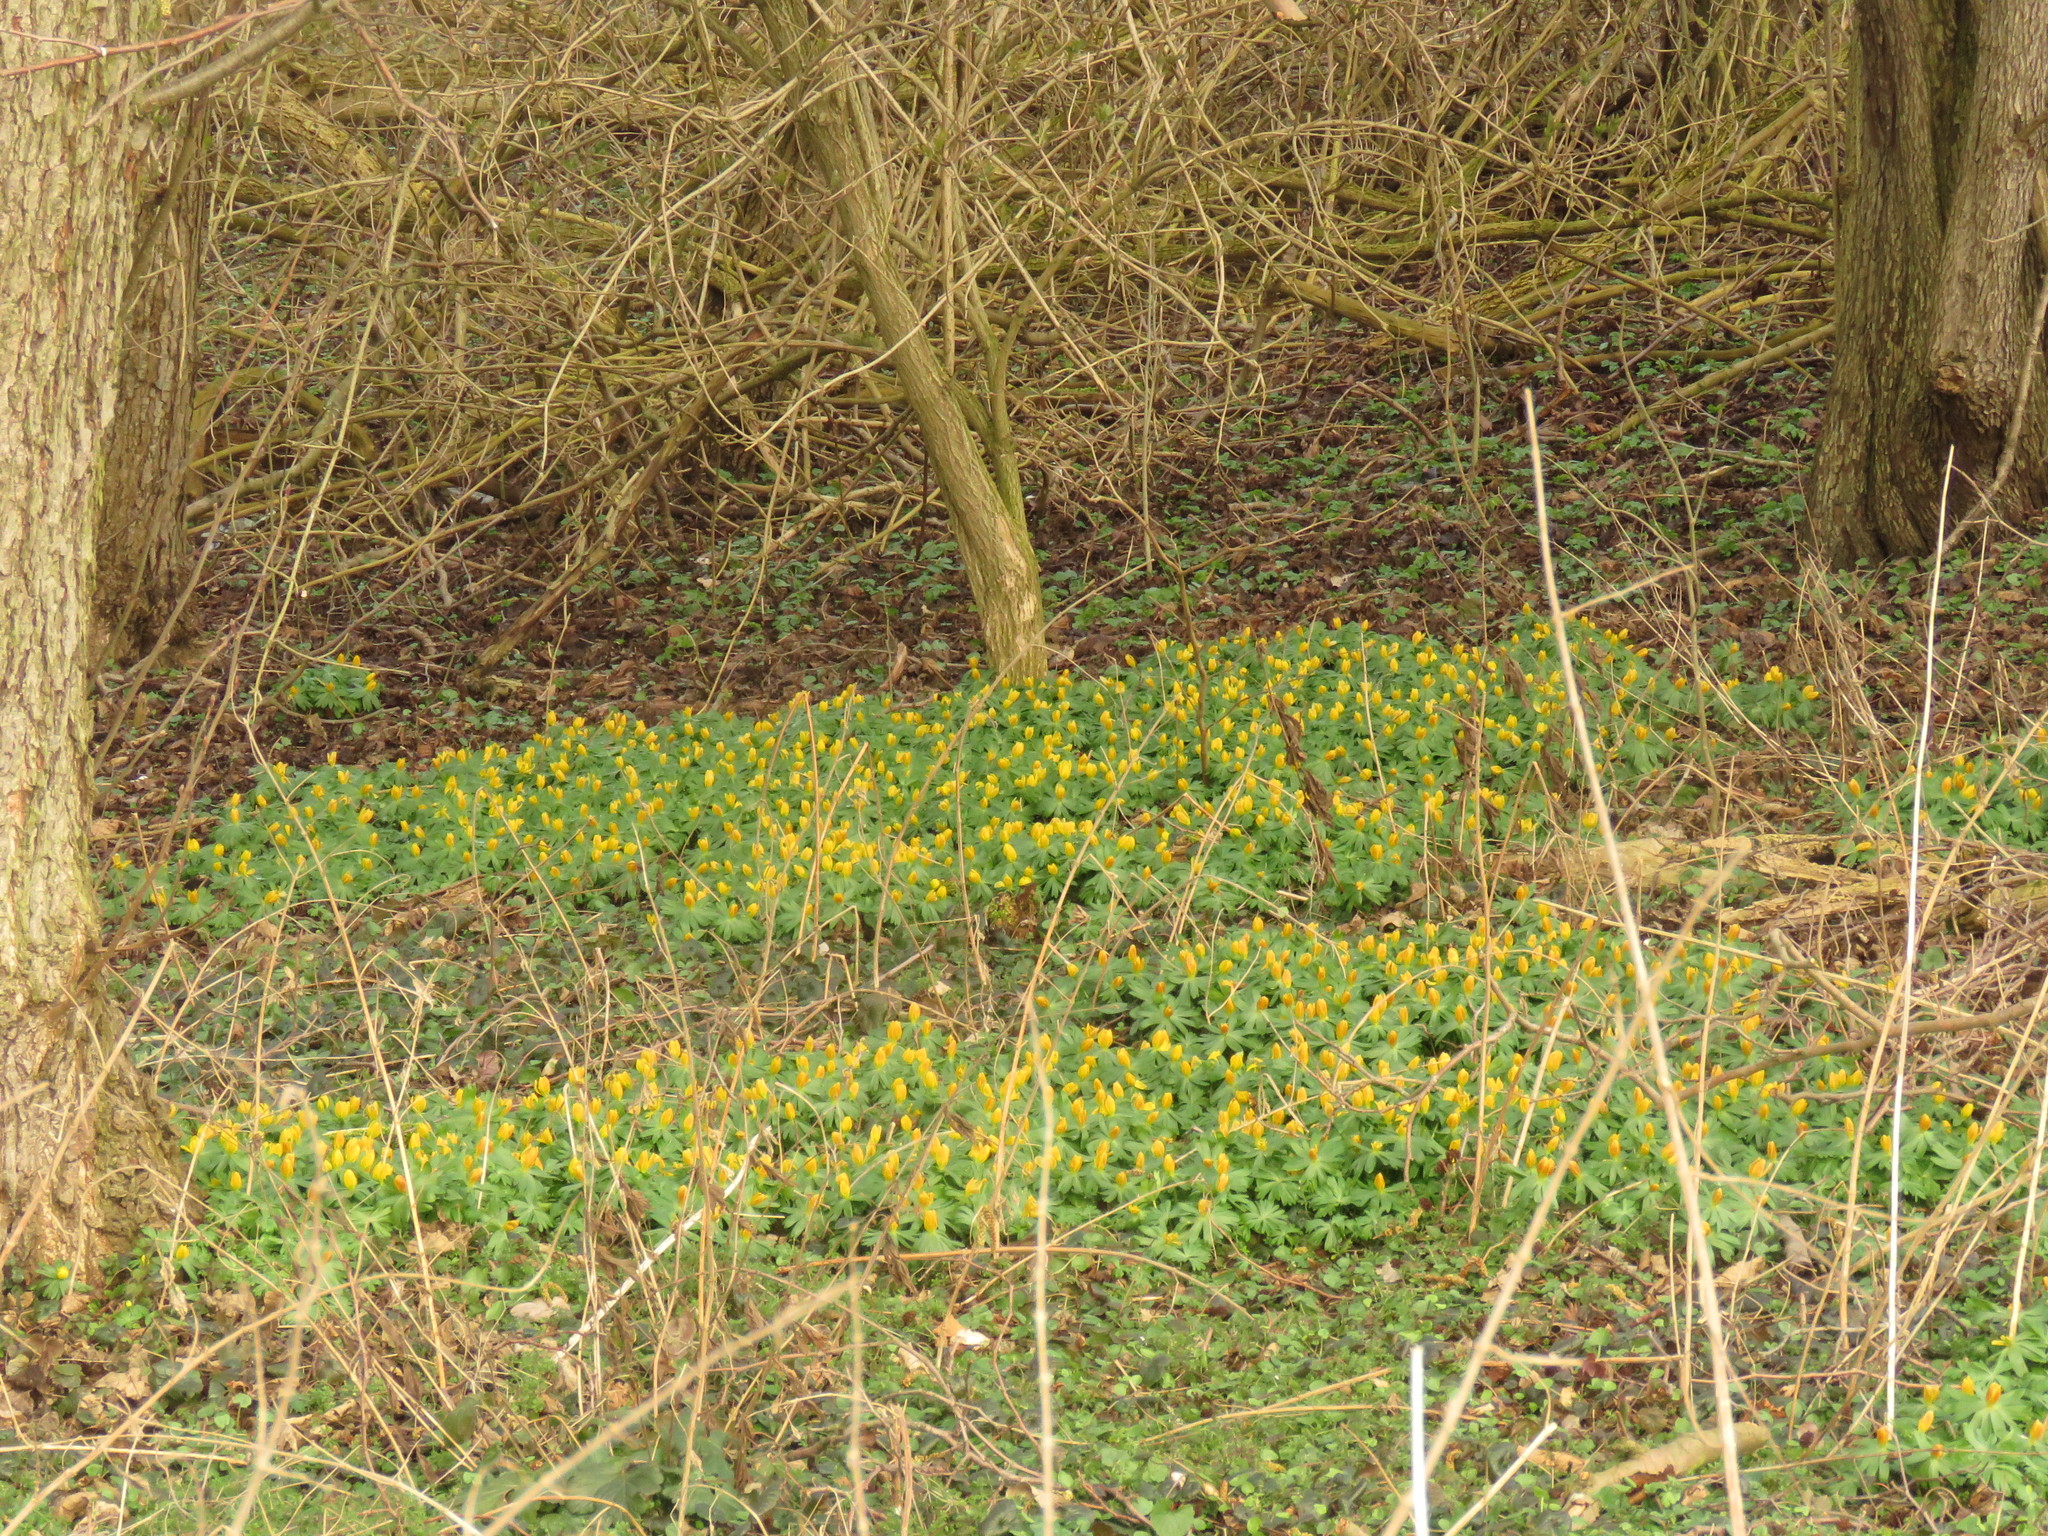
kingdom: Plantae
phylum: Tracheophyta
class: Magnoliopsida
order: Ranunculales
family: Ranunculaceae
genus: Eranthis
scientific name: Eranthis hyemalis
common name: Winter aconite
